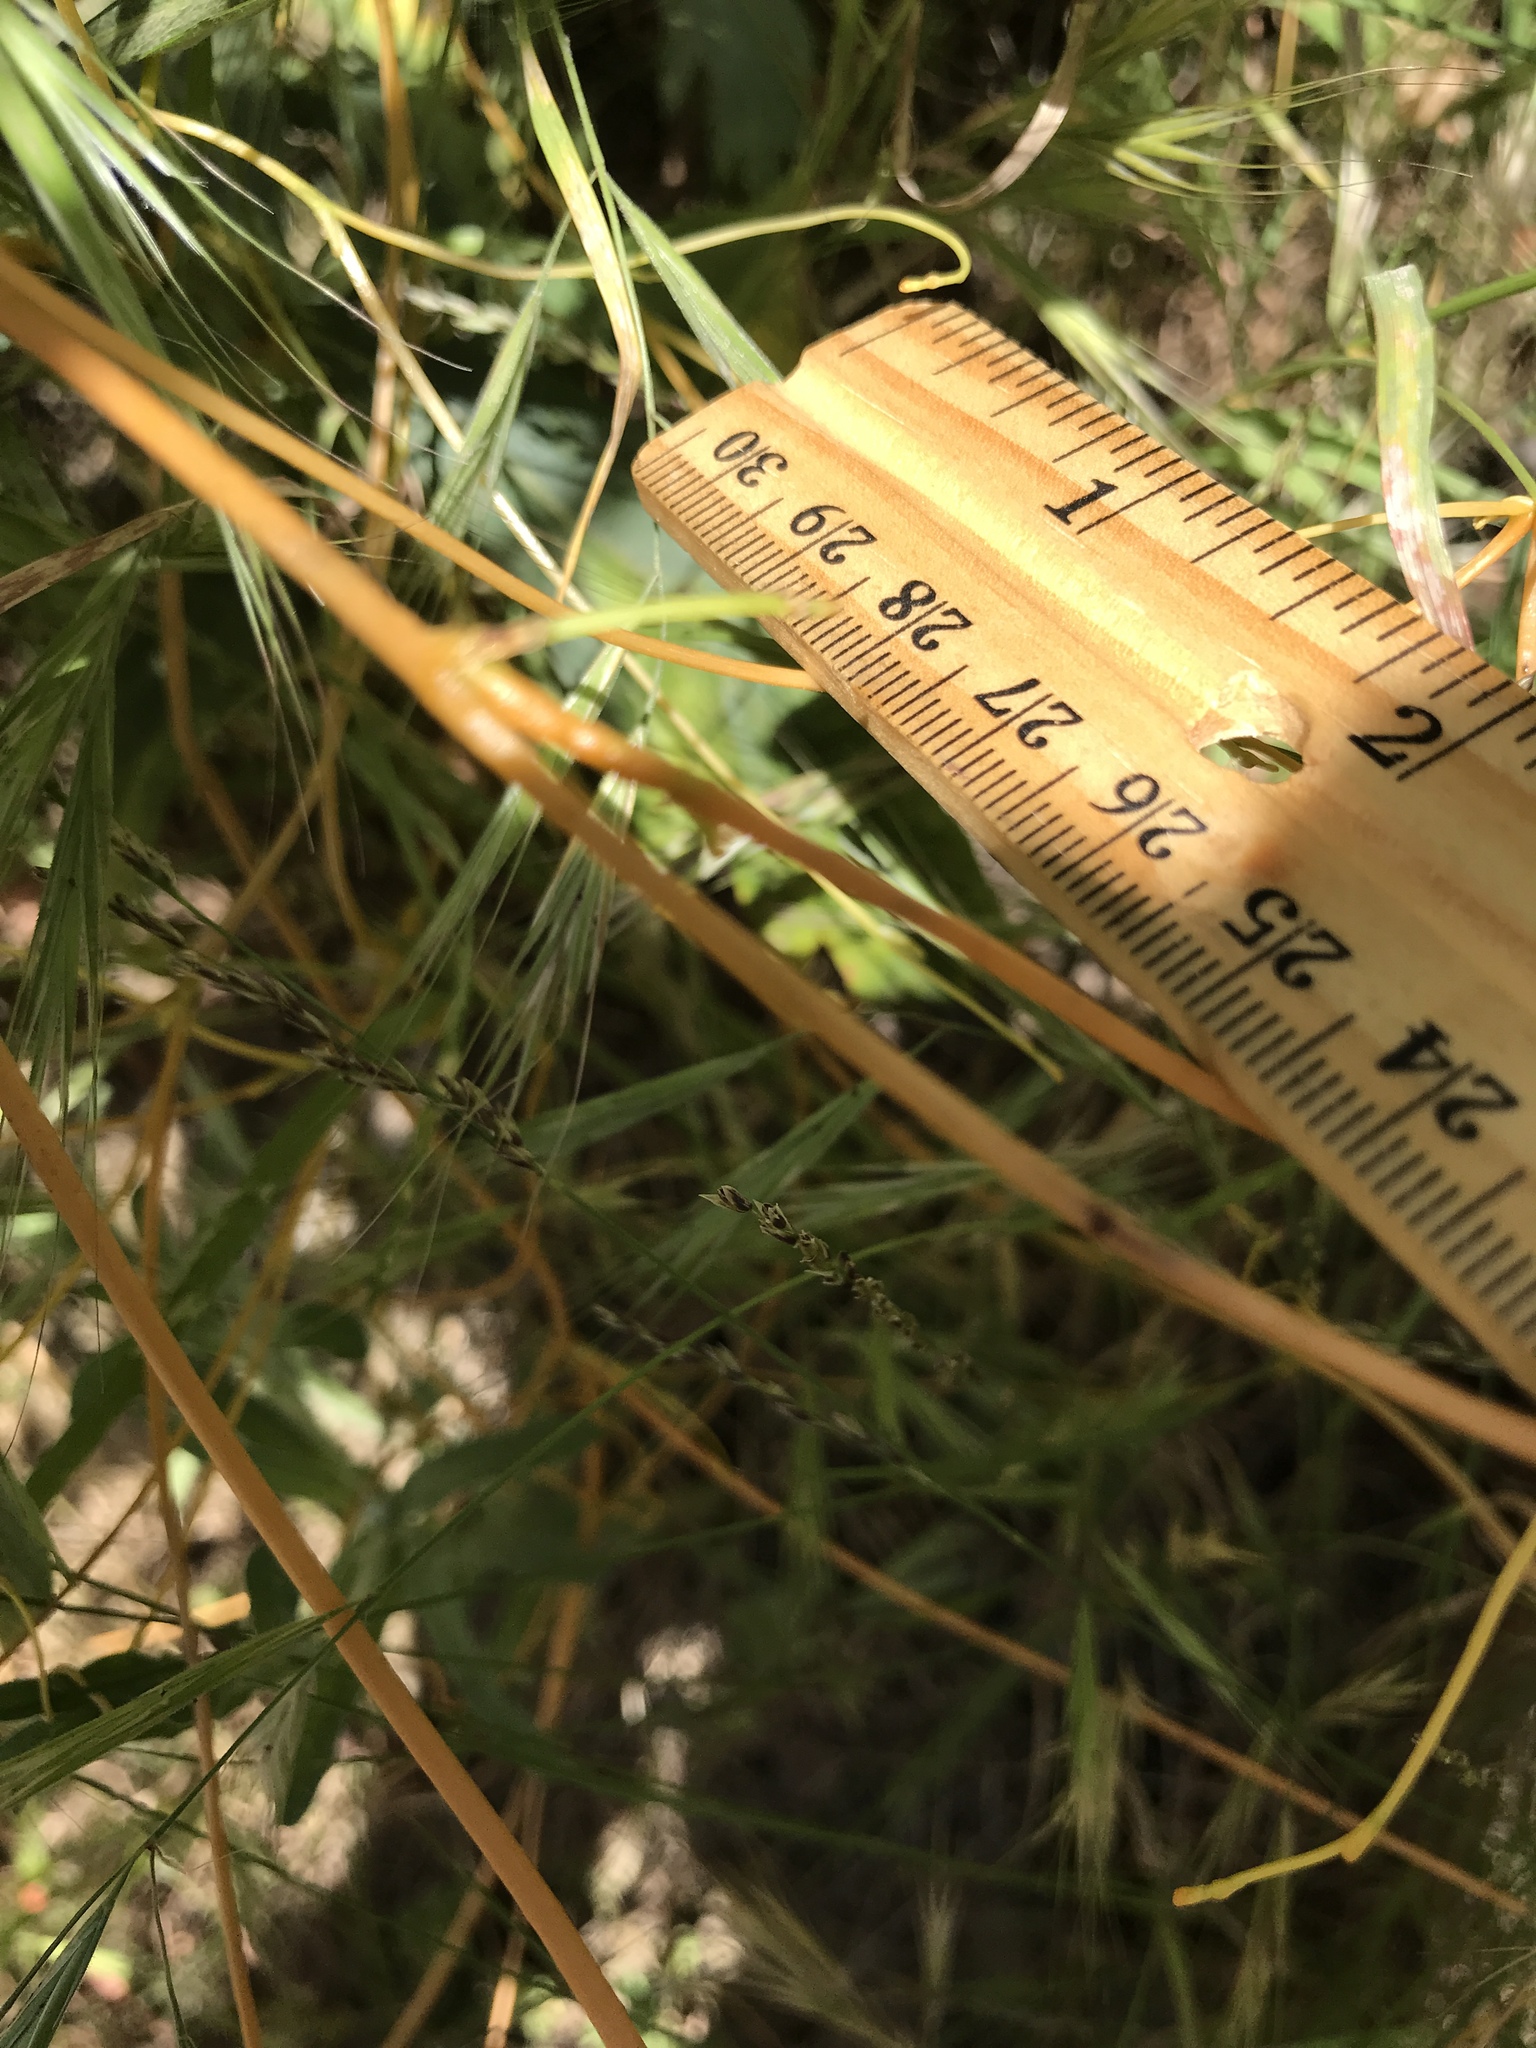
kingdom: Plantae
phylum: Tracheophyta
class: Magnoliopsida
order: Solanales
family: Convolvulaceae
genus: Cuscuta
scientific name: Cuscuta subinclusa
